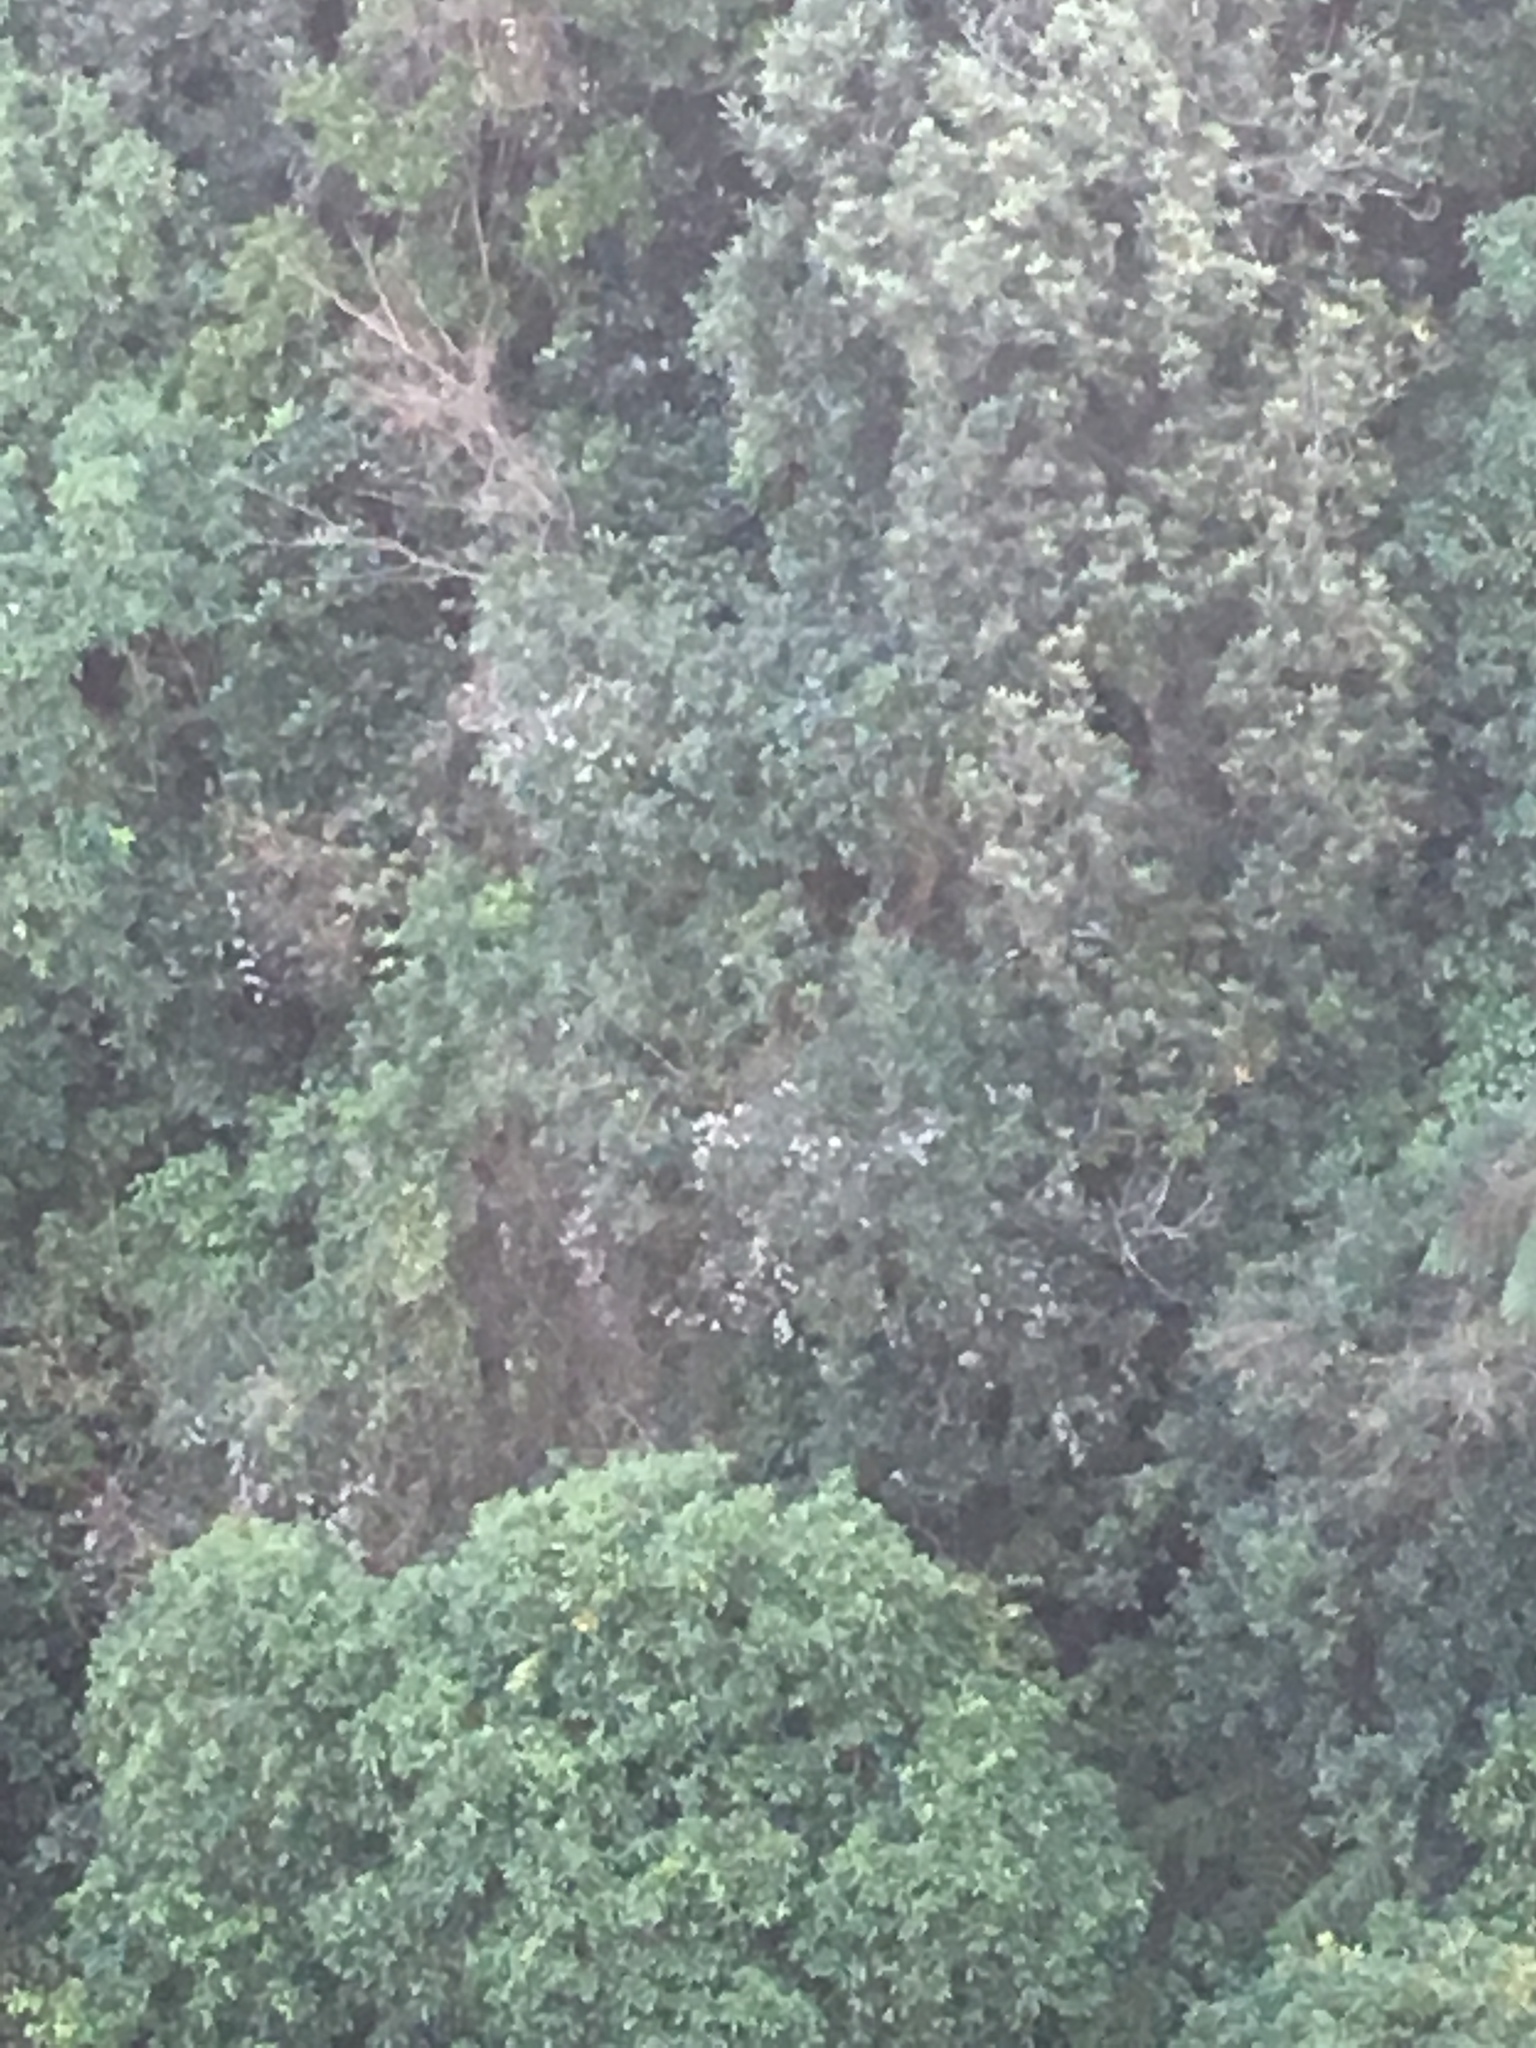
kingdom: Plantae
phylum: Tracheophyta
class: Magnoliopsida
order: Ranunculales
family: Ranunculaceae
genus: Clematis
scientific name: Clematis vitalba
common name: Evergreen clematis
